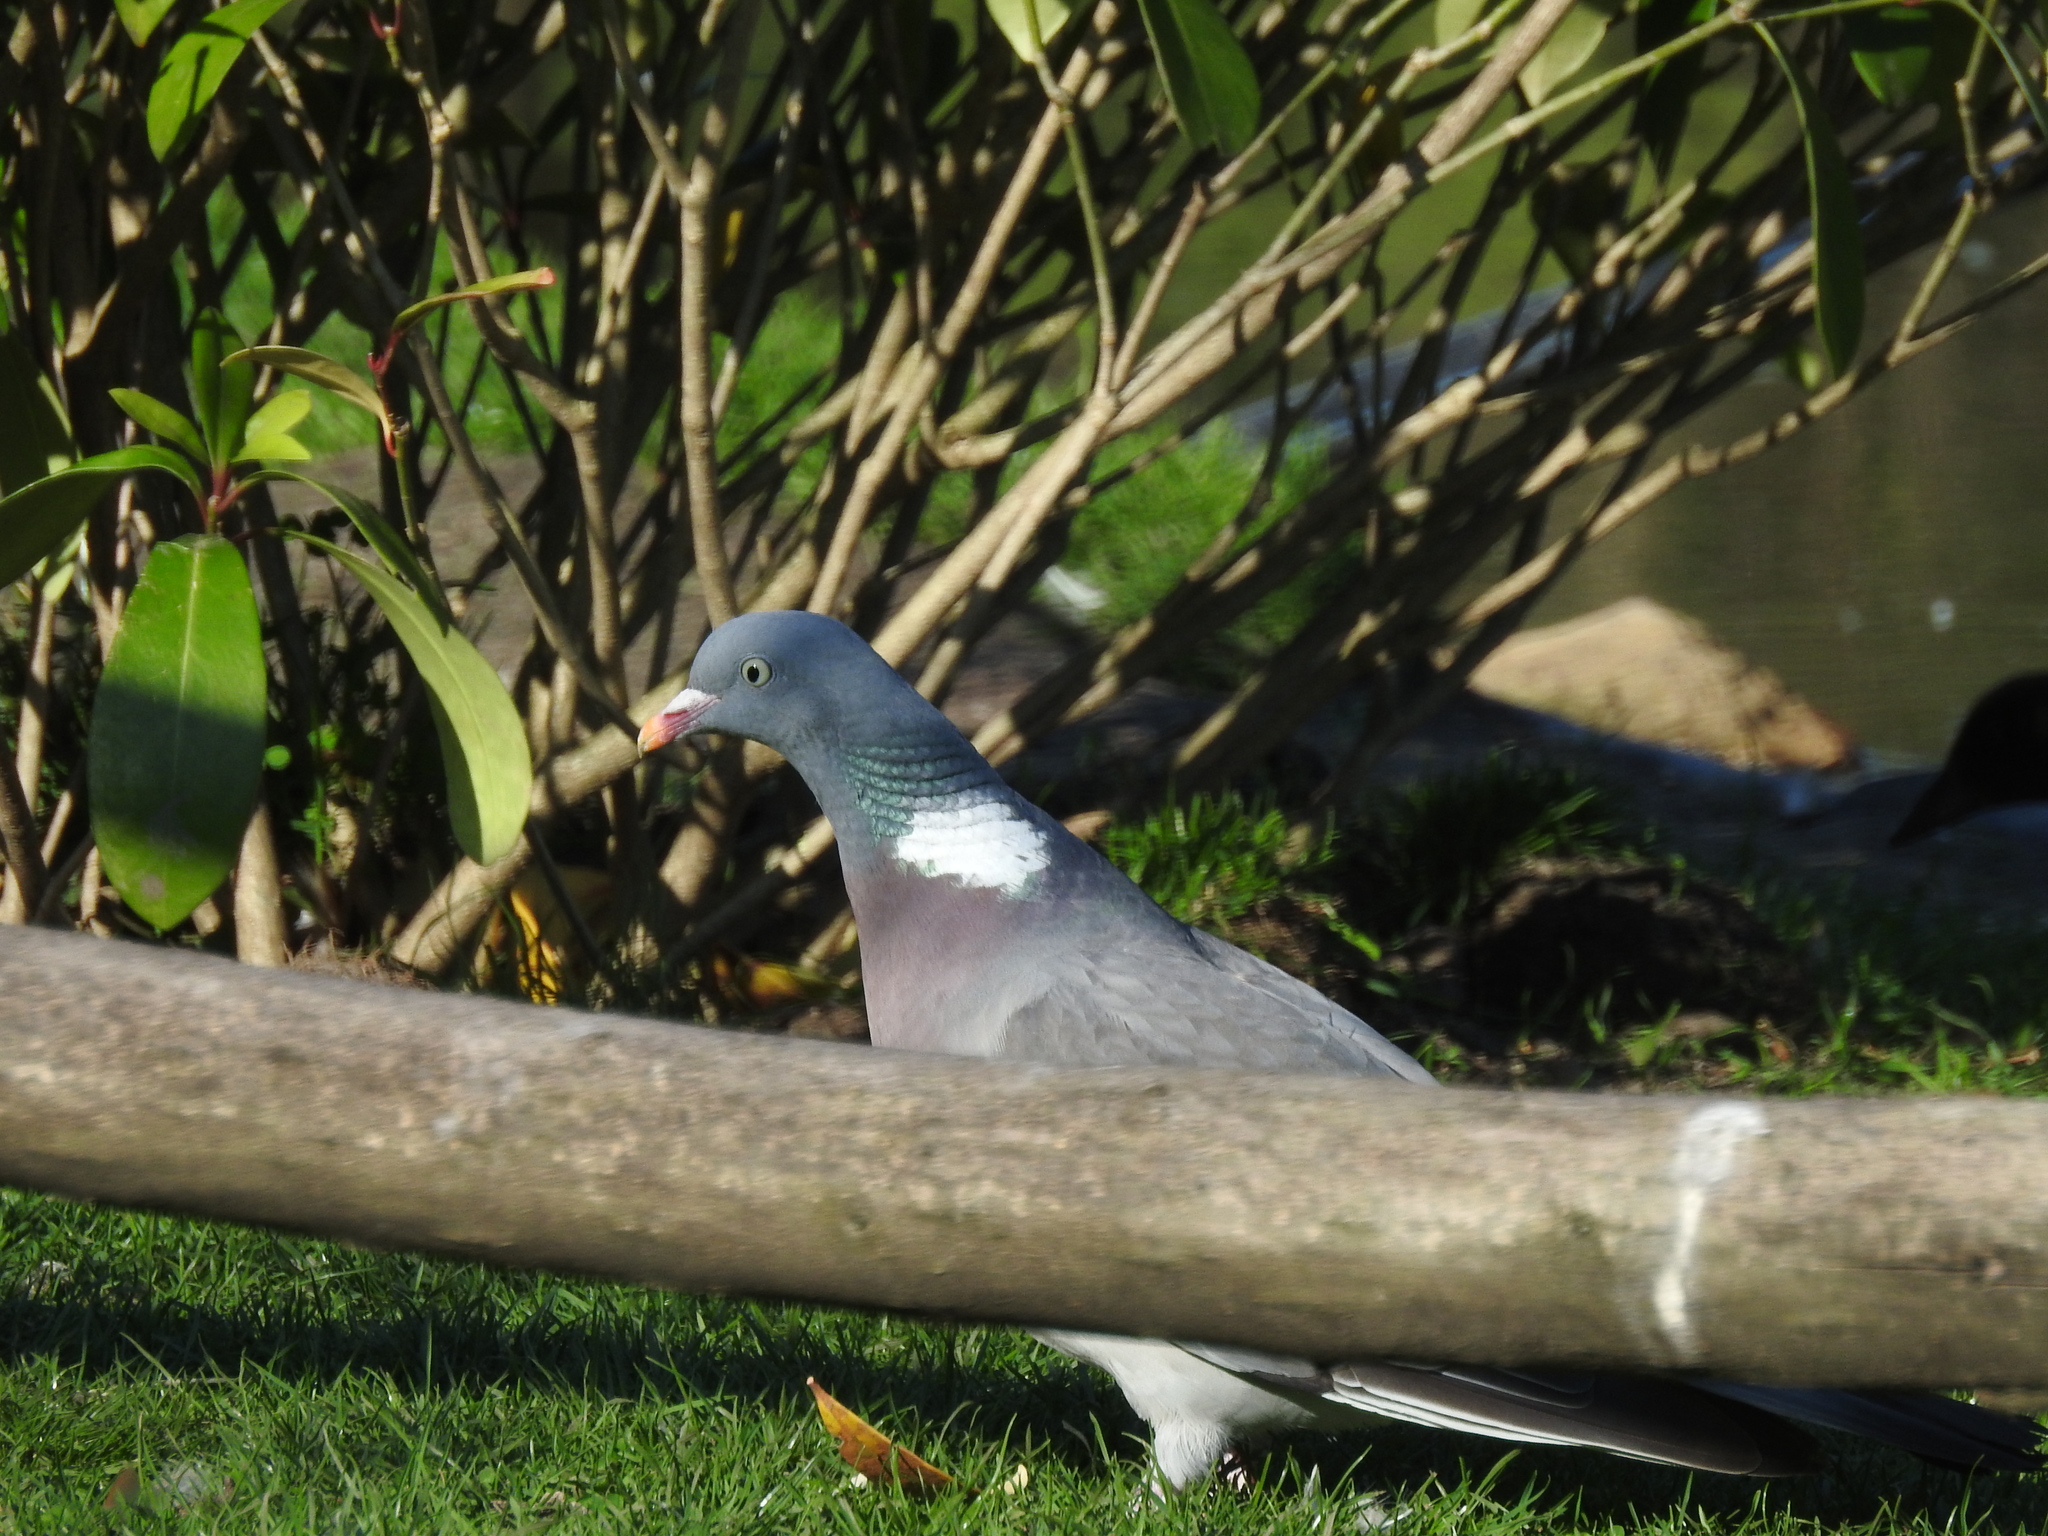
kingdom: Animalia
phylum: Chordata
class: Aves
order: Columbiformes
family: Columbidae
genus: Columba
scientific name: Columba palumbus
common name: Common wood pigeon
